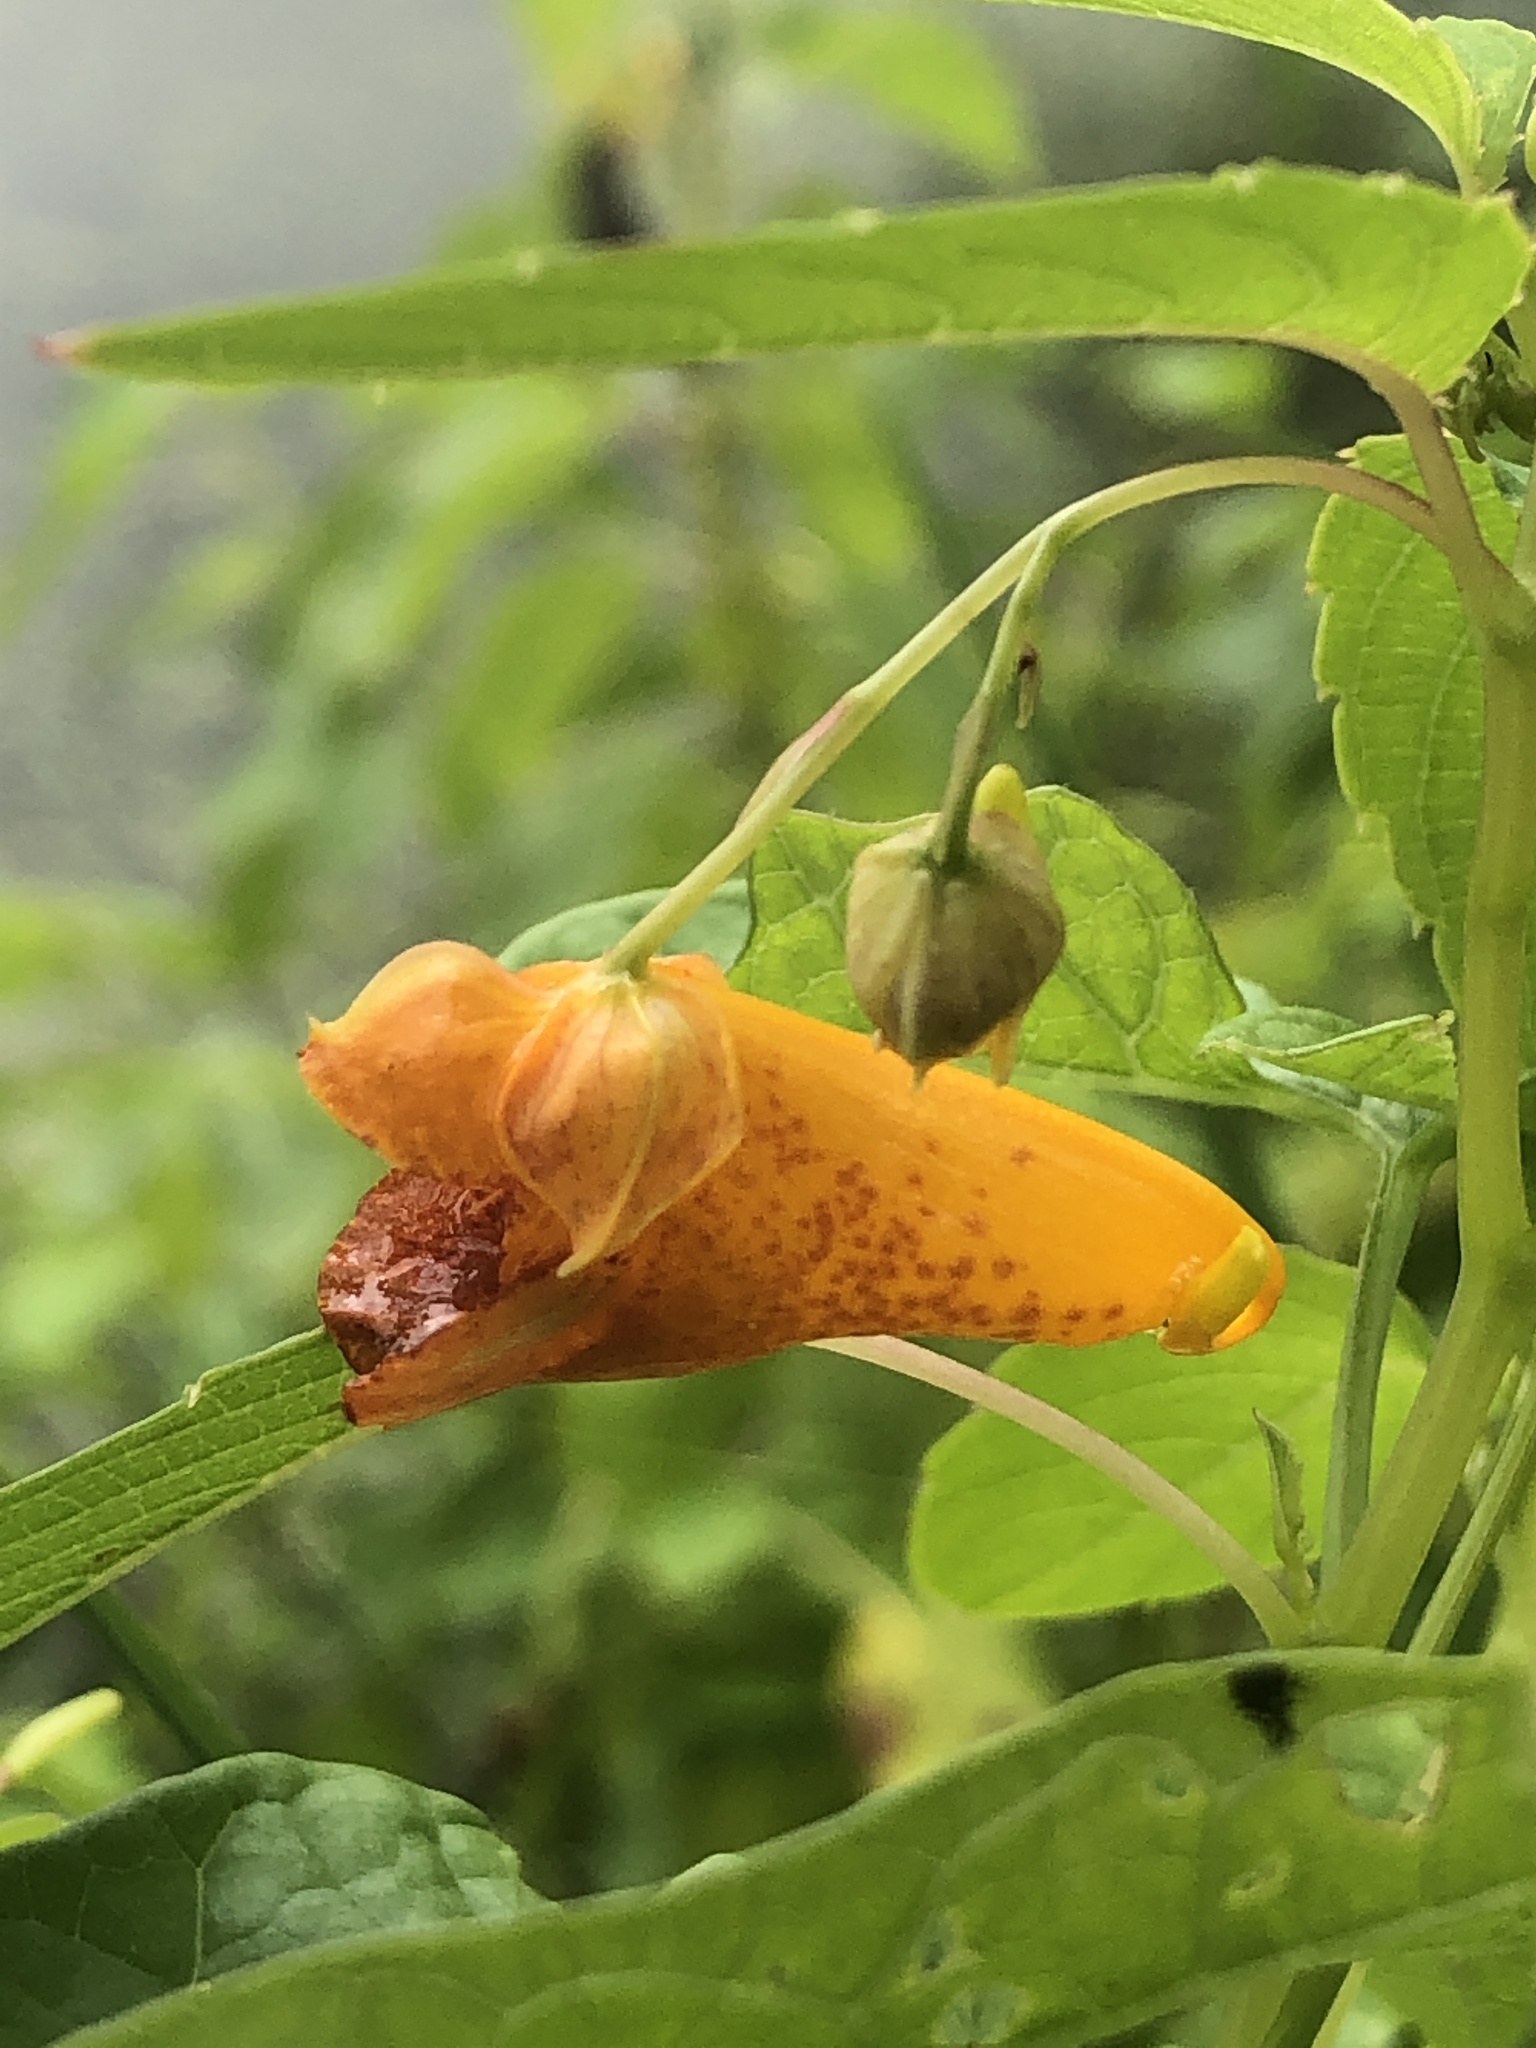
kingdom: Plantae
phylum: Tracheophyta
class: Magnoliopsida
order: Ericales
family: Balsaminaceae
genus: Impatiens
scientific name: Impatiens capensis
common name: Orange balsam
